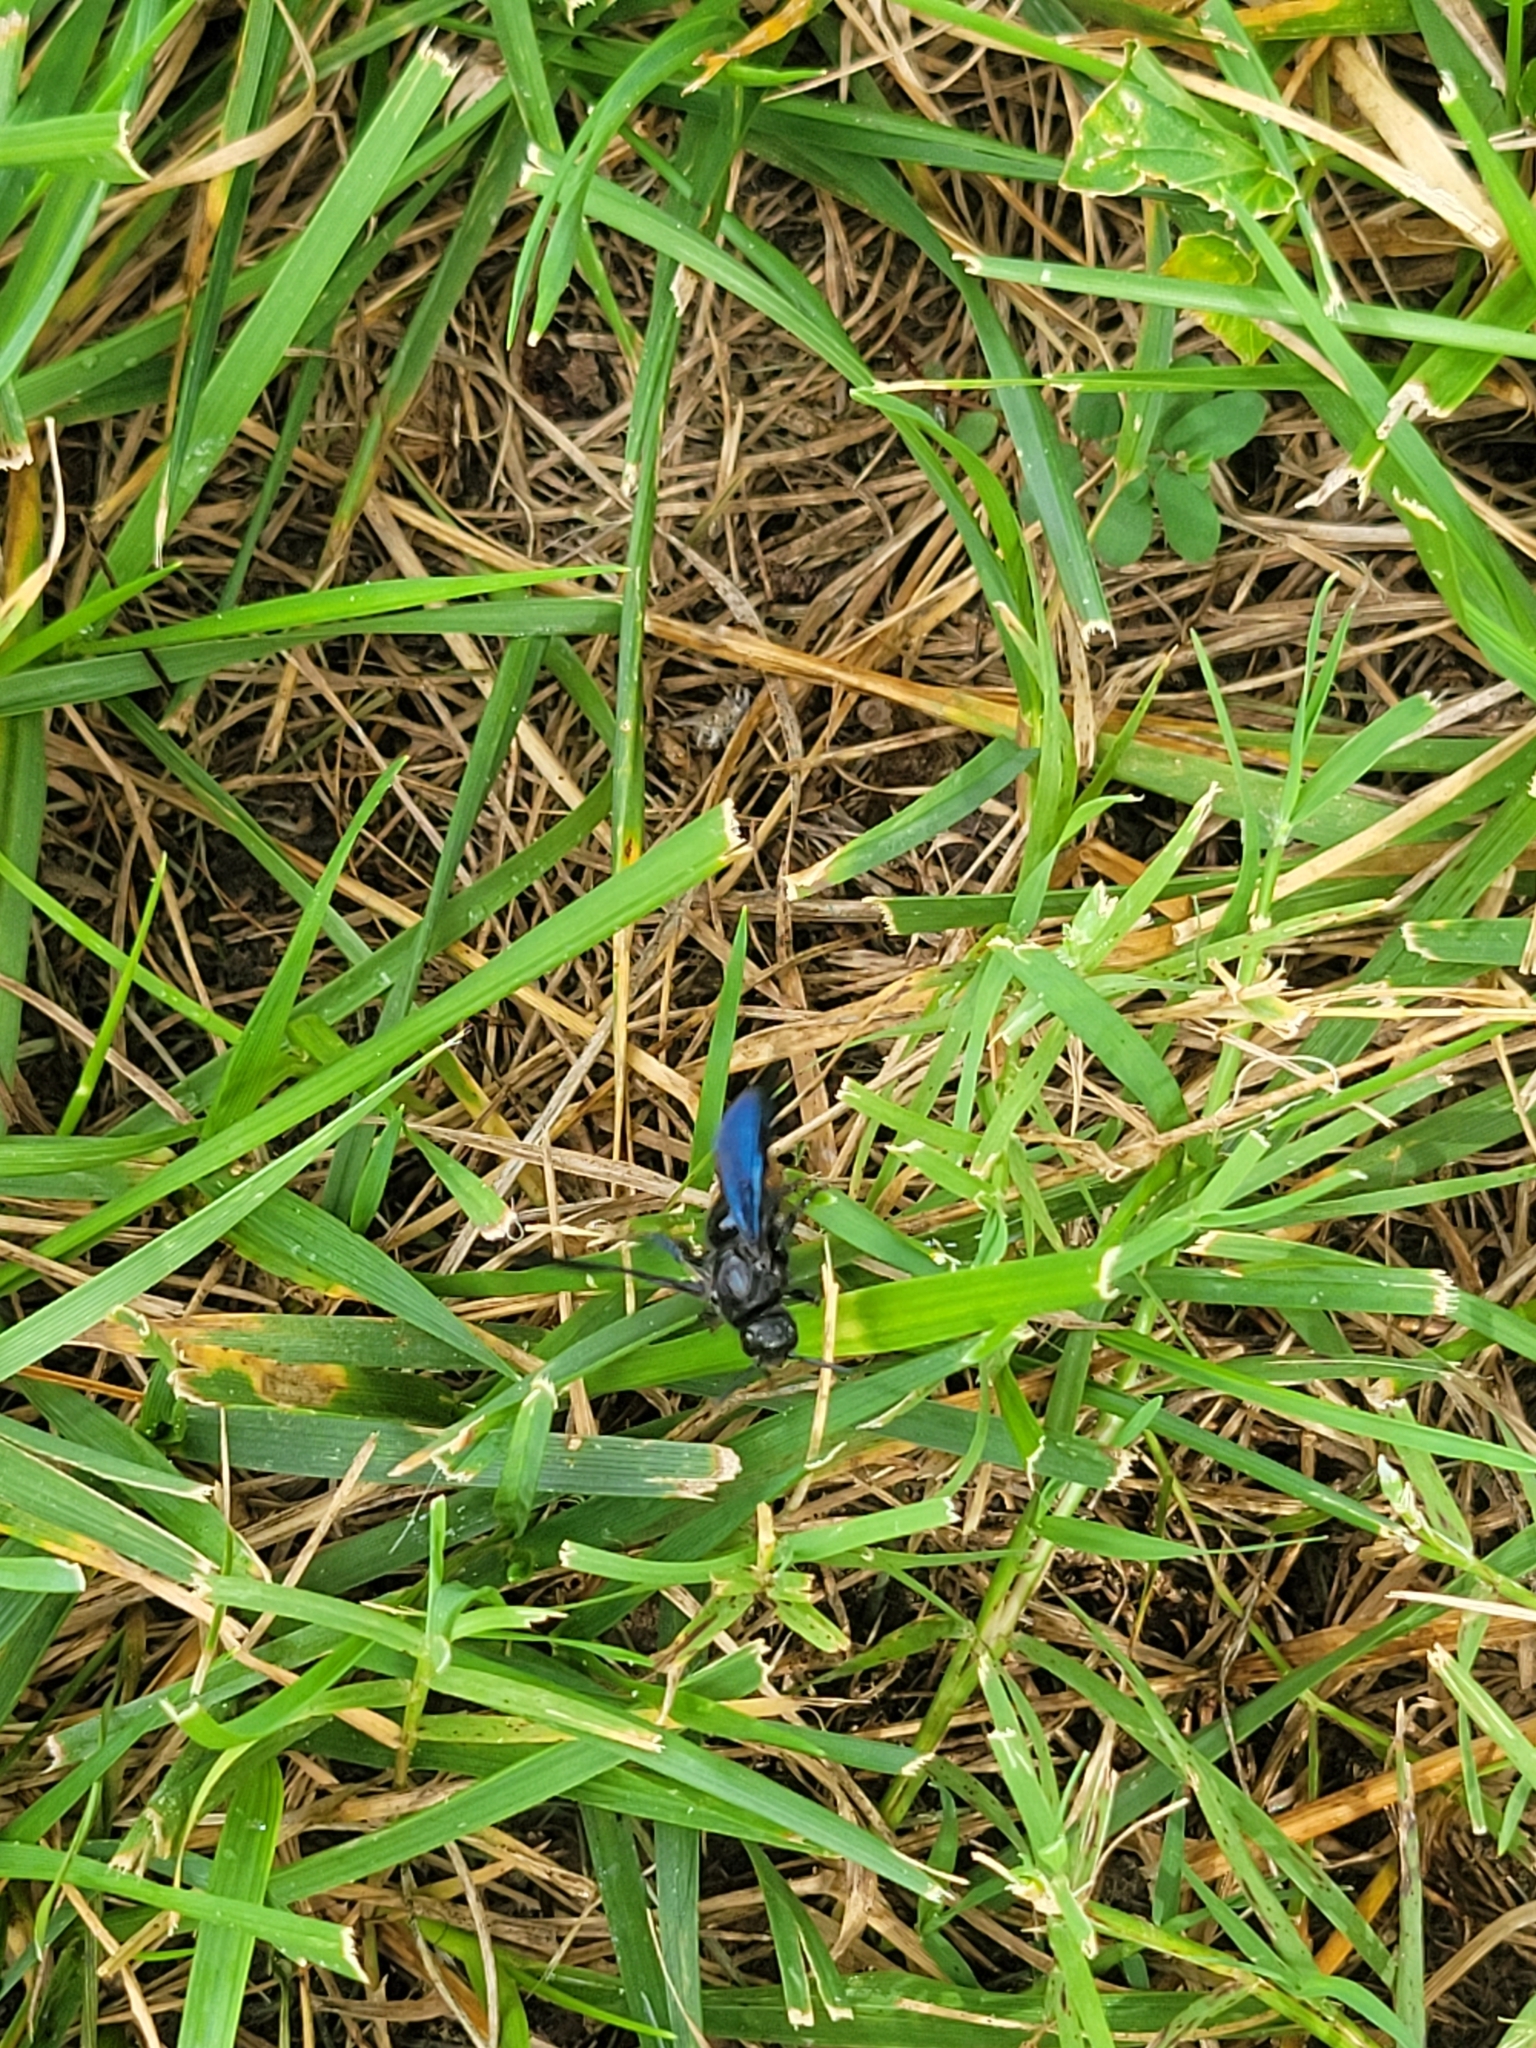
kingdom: Animalia
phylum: Arthropoda
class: Insecta
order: Hymenoptera
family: Scoliidae
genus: Scolia
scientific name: Scolia dubia
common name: Blue-winged scoliid wasp
